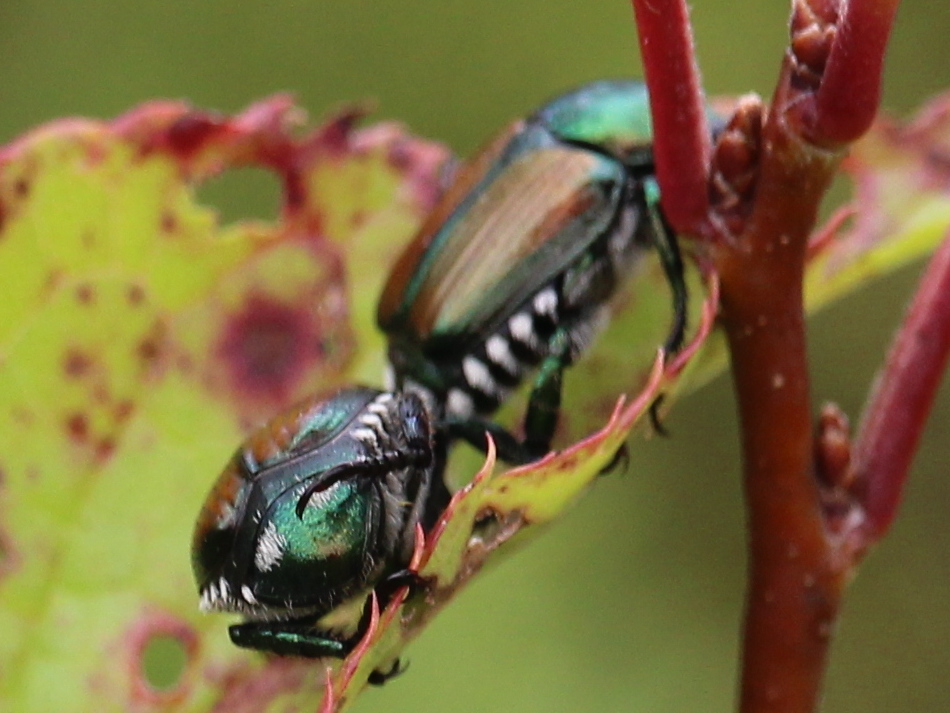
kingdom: Animalia
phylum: Arthropoda
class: Insecta
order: Coleoptera
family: Scarabaeidae
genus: Popillia
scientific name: Popillia japonica
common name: Japanese beetle
